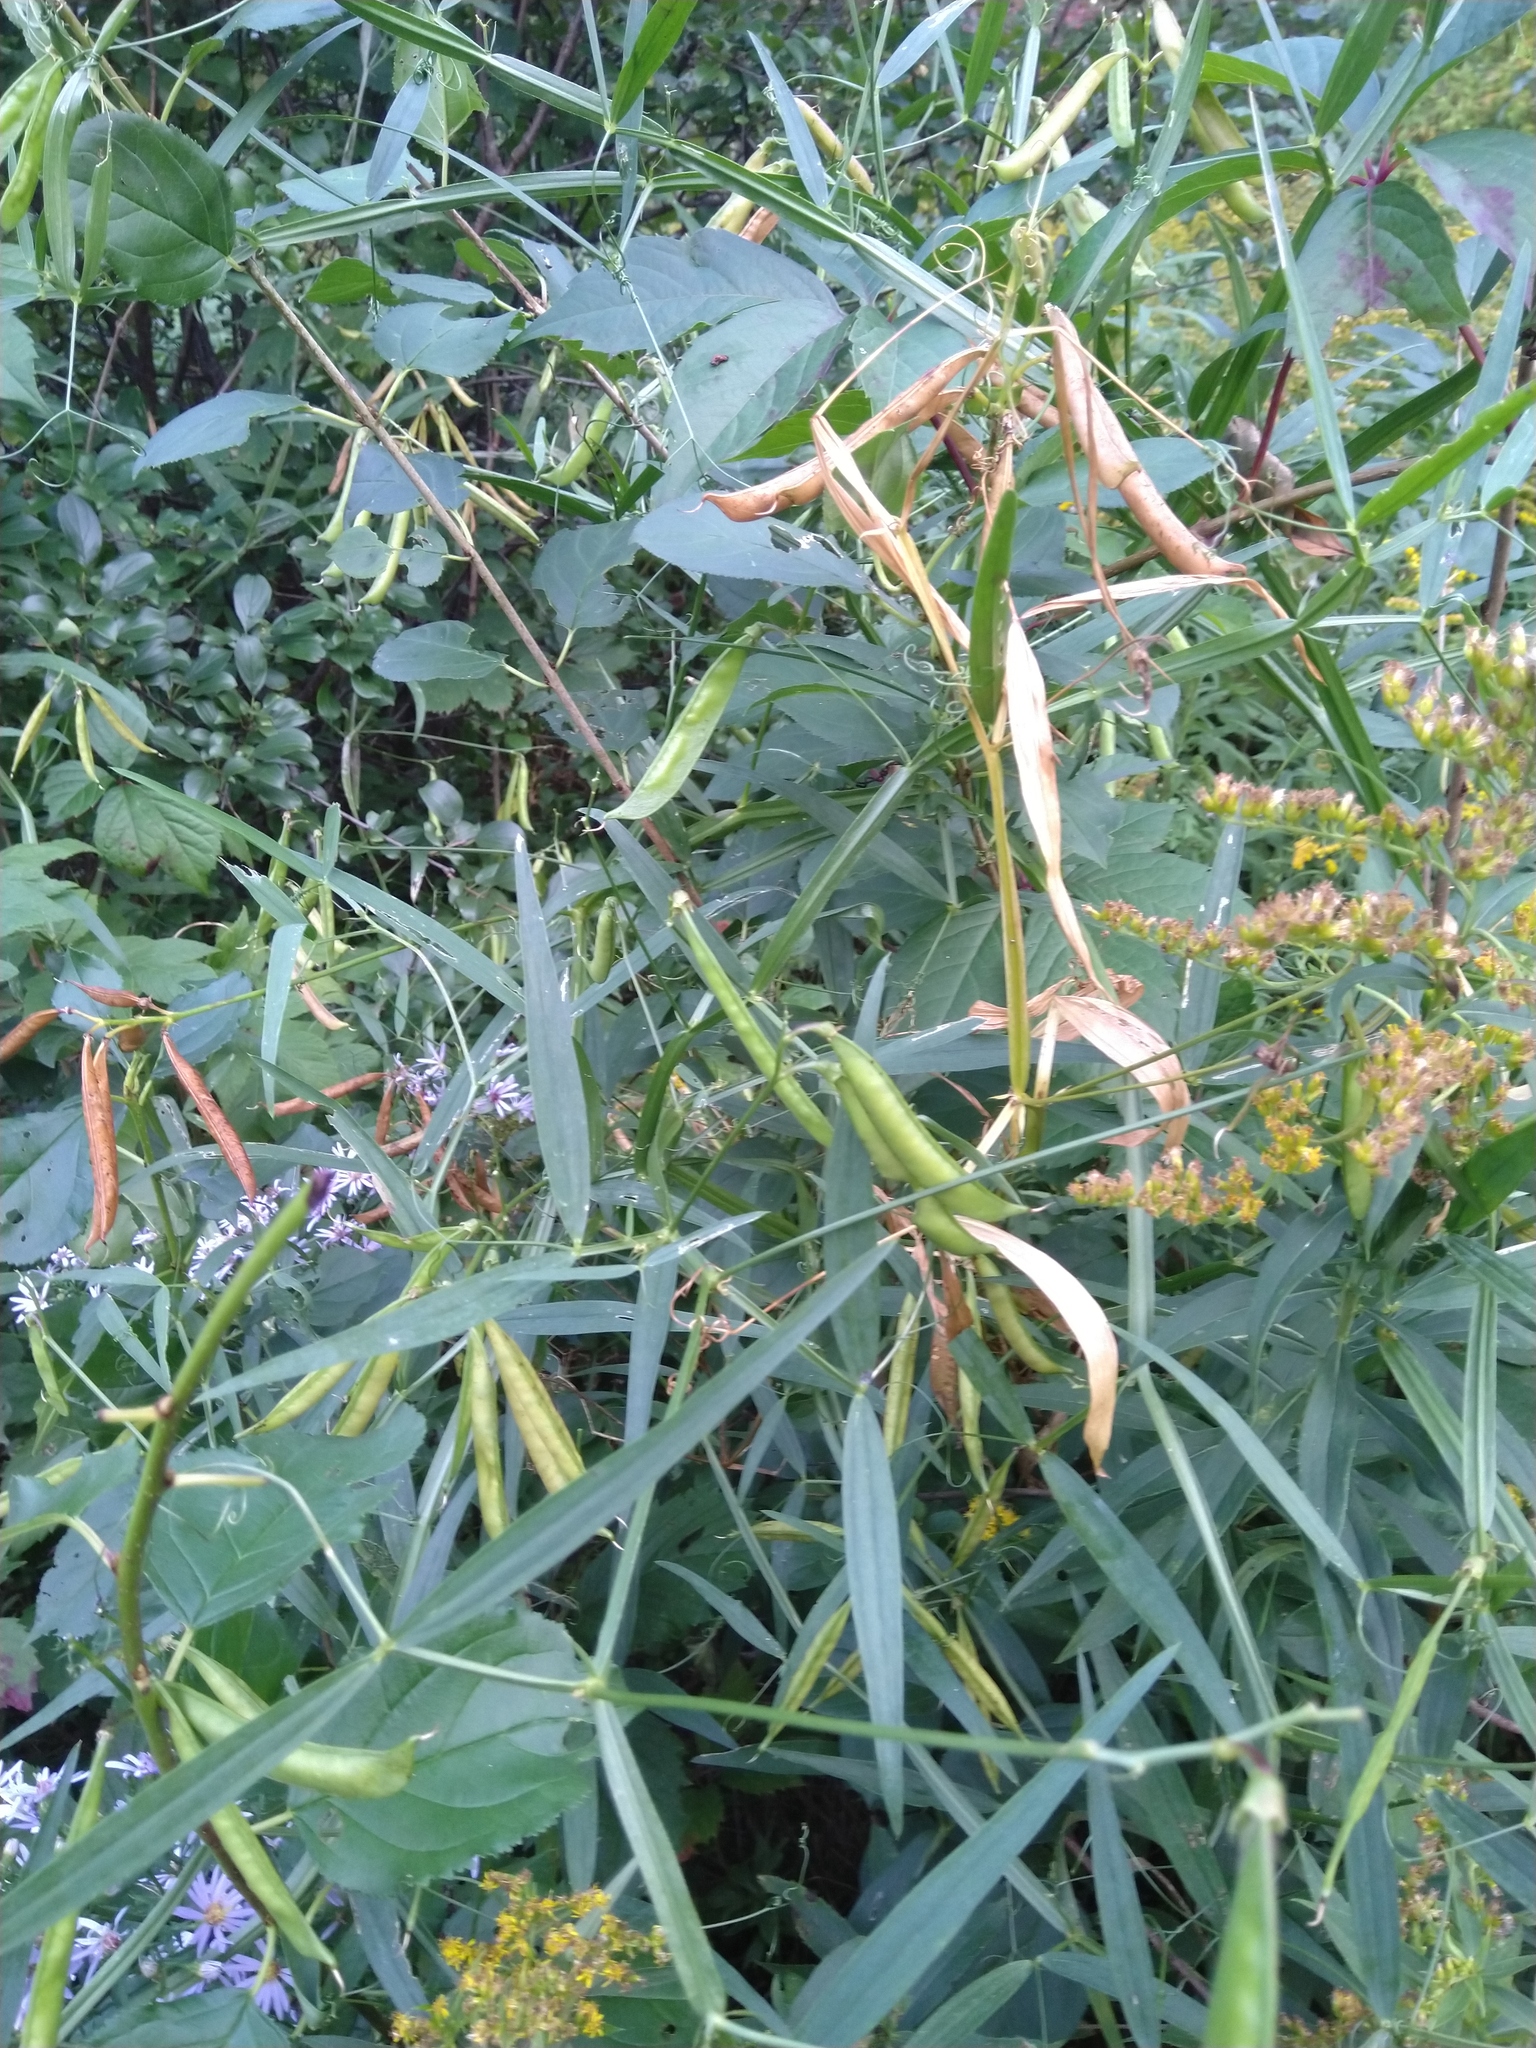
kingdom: Plantae
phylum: Tracheophyta
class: Magnoliopsida
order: Fabales
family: Fabaceae
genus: Lathyrus
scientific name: Lathyrus sylvestris
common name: Flat pea
